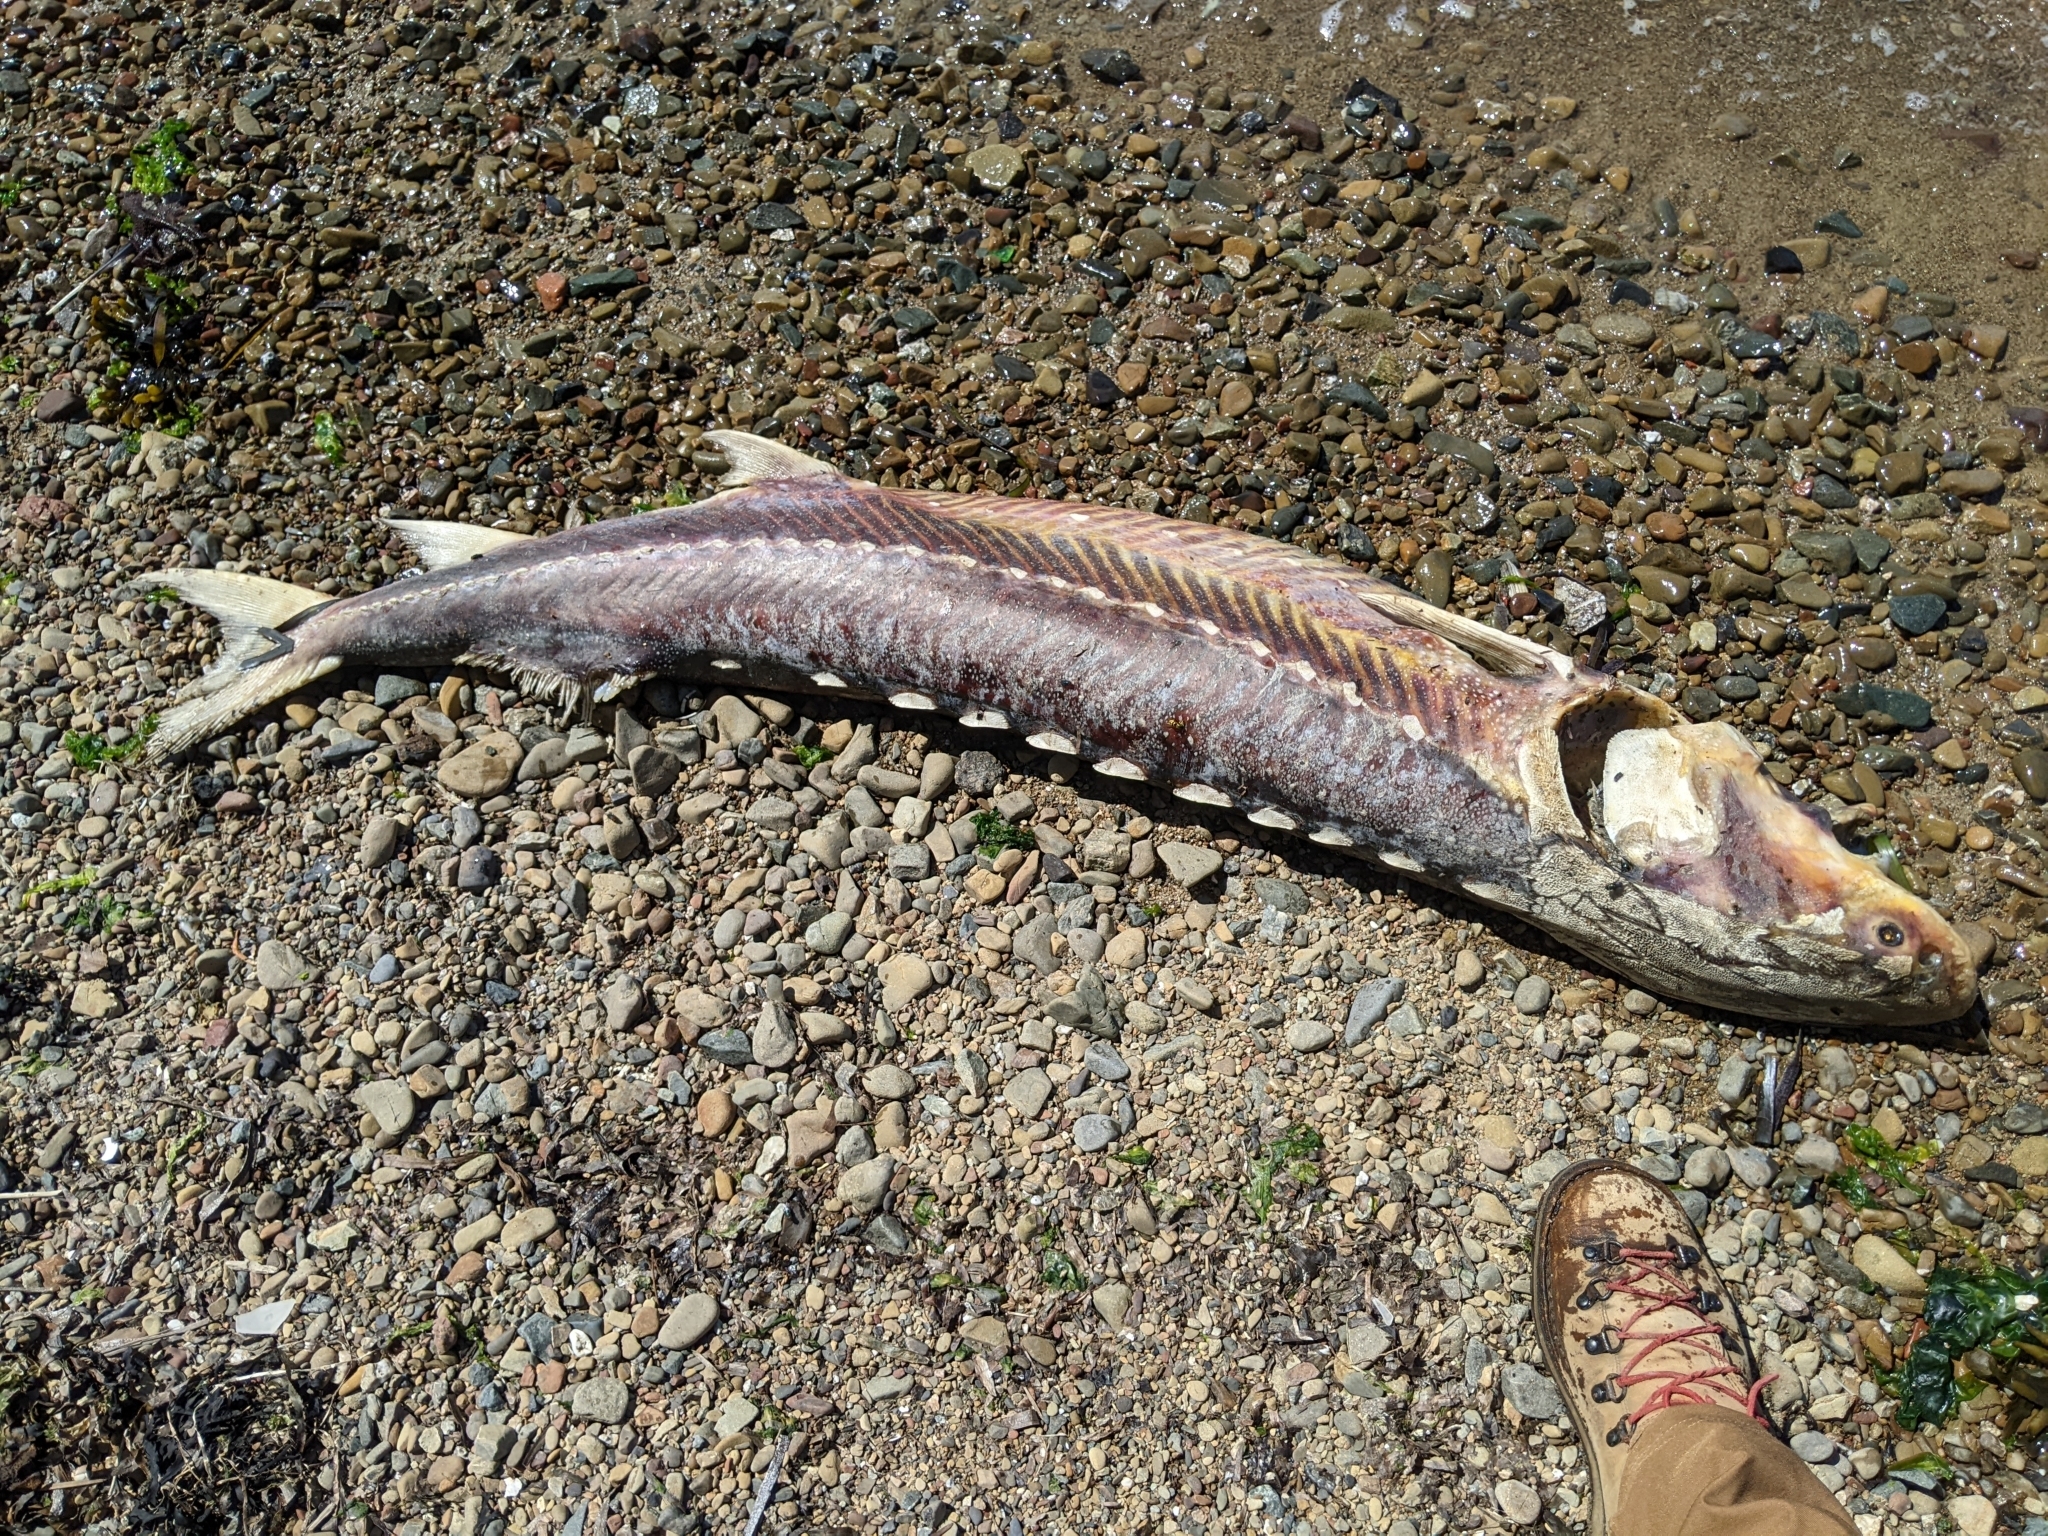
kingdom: Animalia
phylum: Chordata
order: Acipenseriformes
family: Acipenseridae
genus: Acipenser
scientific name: Acipenser transmontanus
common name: White sturgeon
